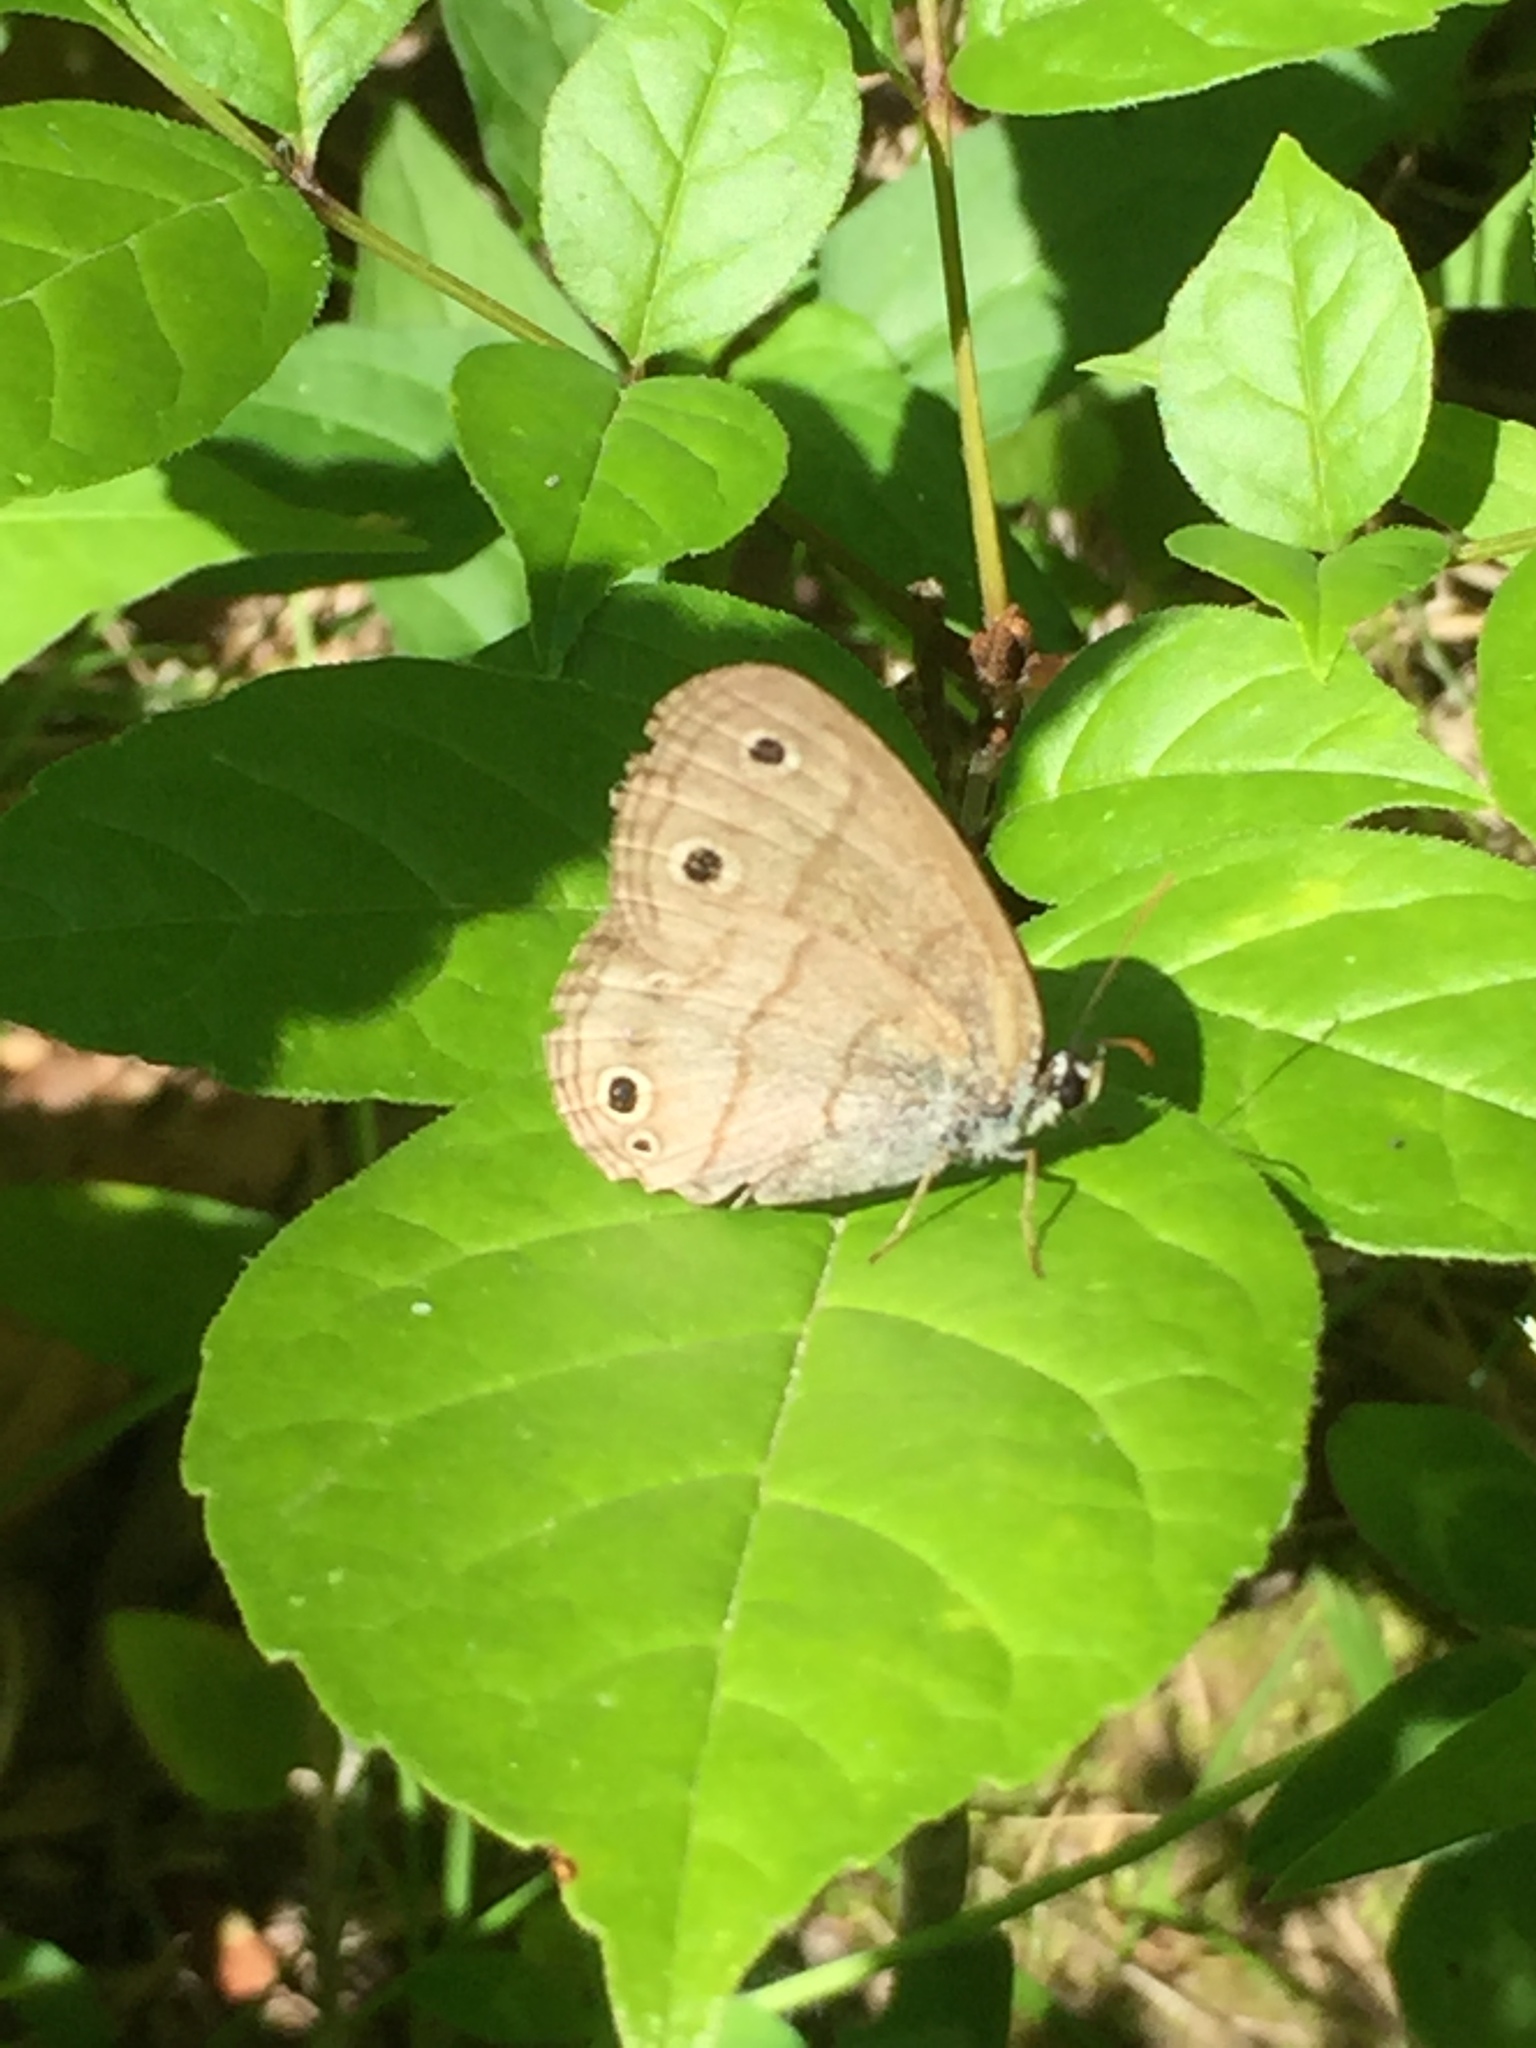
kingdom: Animalia
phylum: Arthropoda
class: Insecta
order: Lepidoptera
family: Nymphalidae
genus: Euptychia
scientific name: Euptychia cymela
